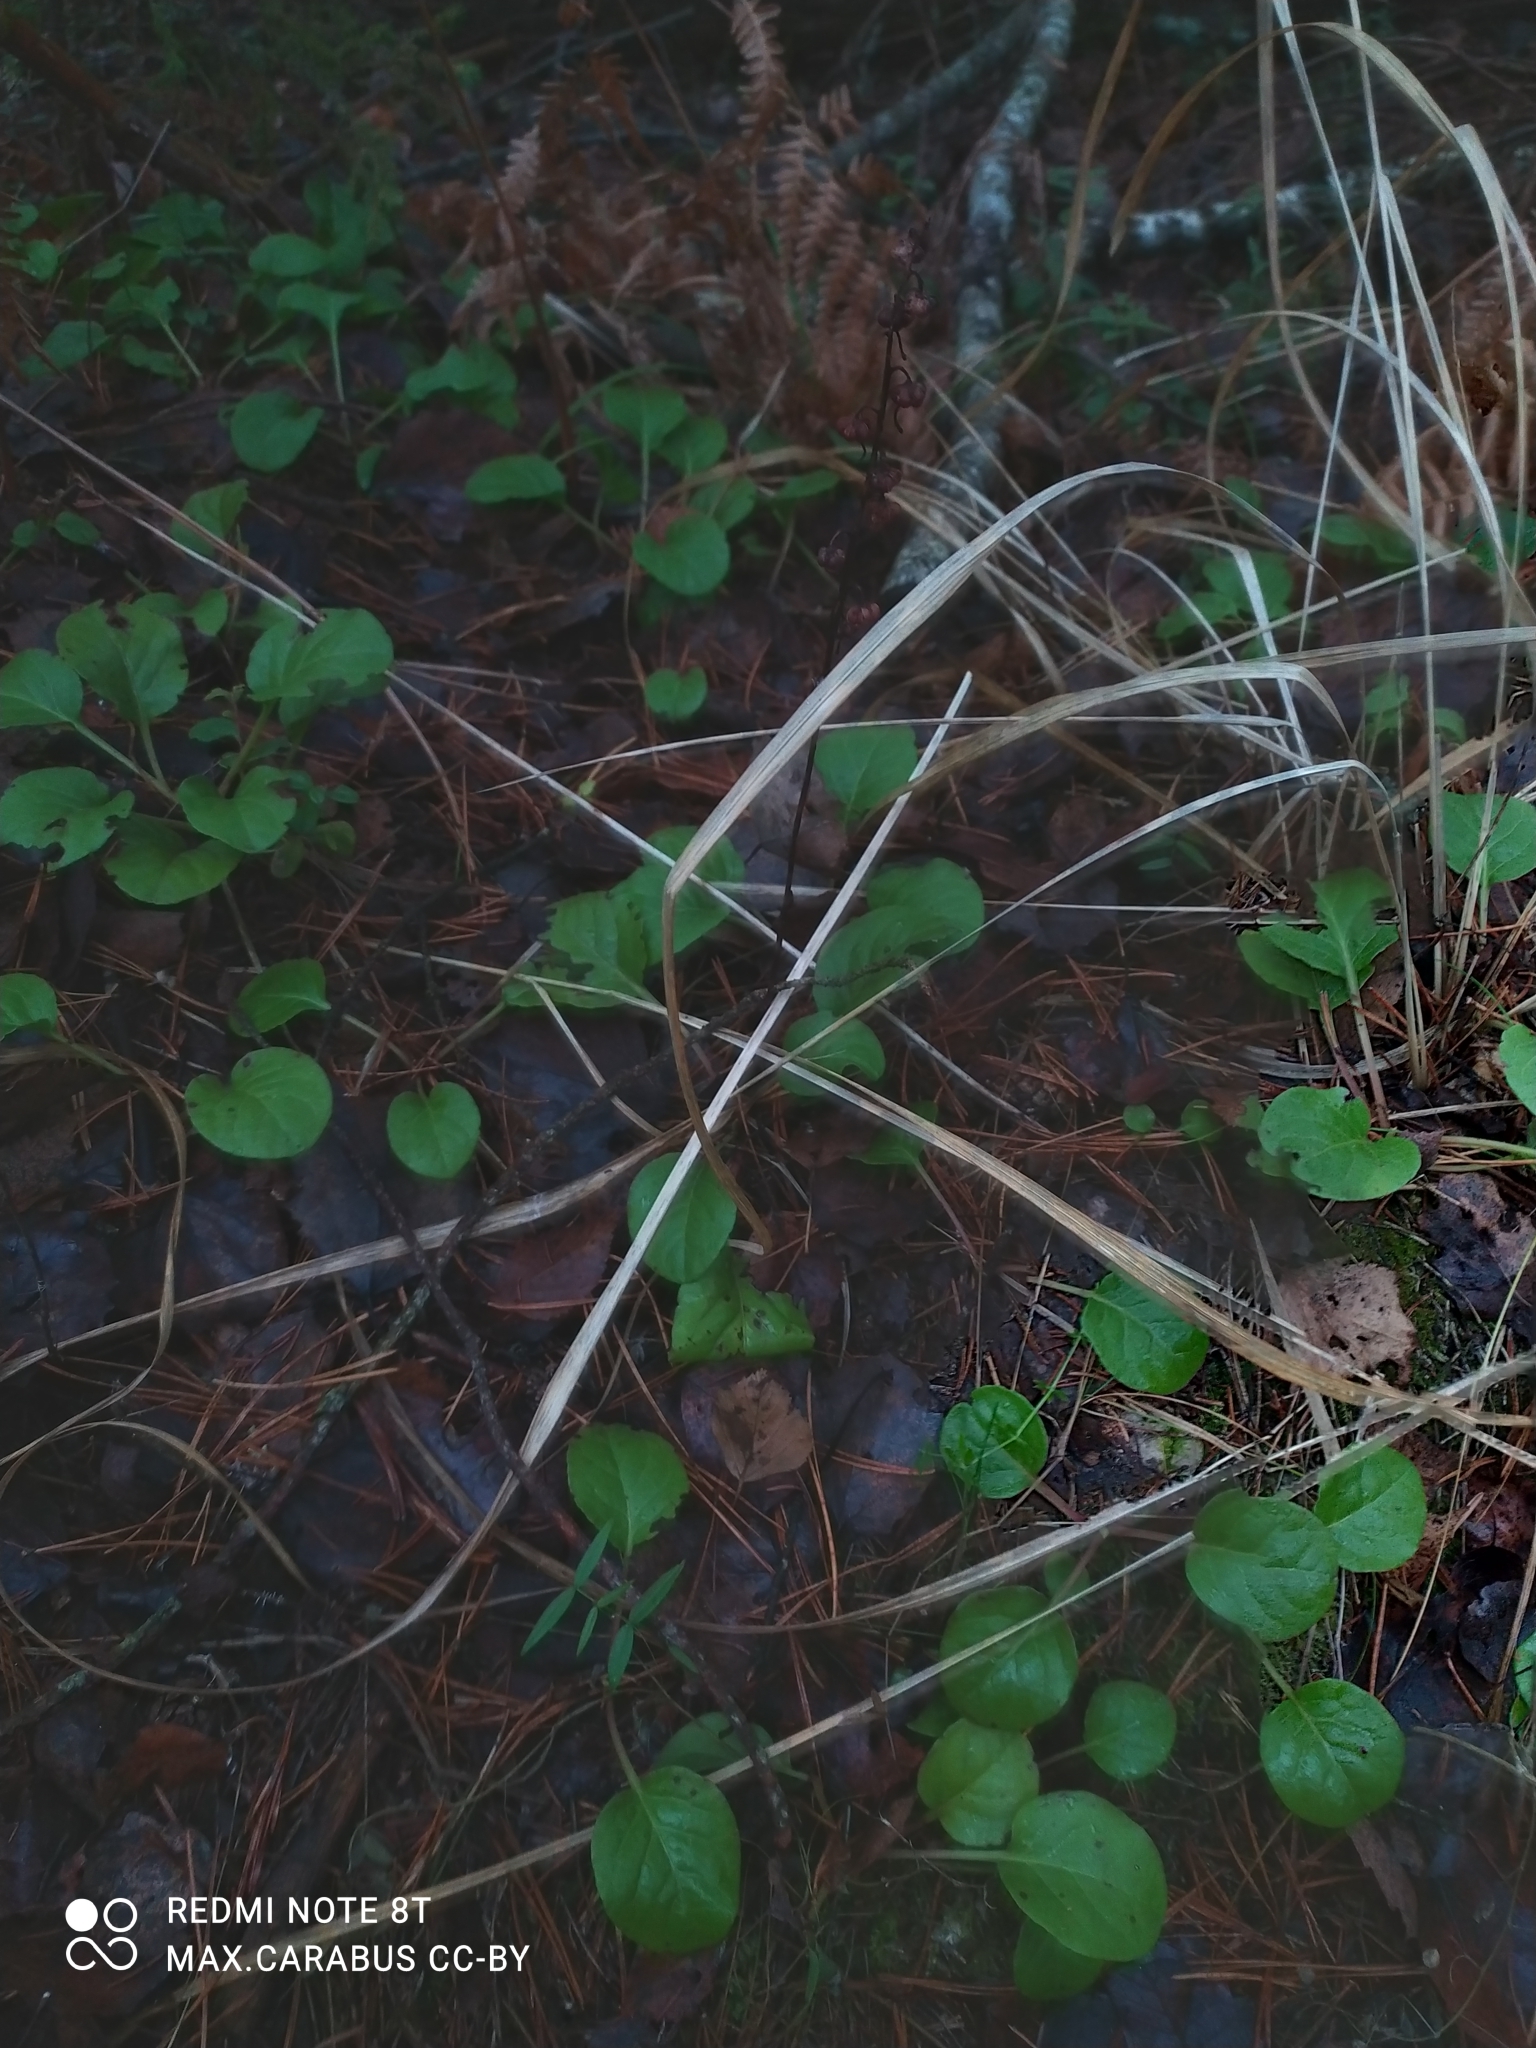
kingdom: Plantae
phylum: Tracheophyta
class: Magnoliopsida
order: Ericales
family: Ericaceae
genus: Pyrola
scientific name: Pyrola rotundifolia
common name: Round-leaved wintergreen
